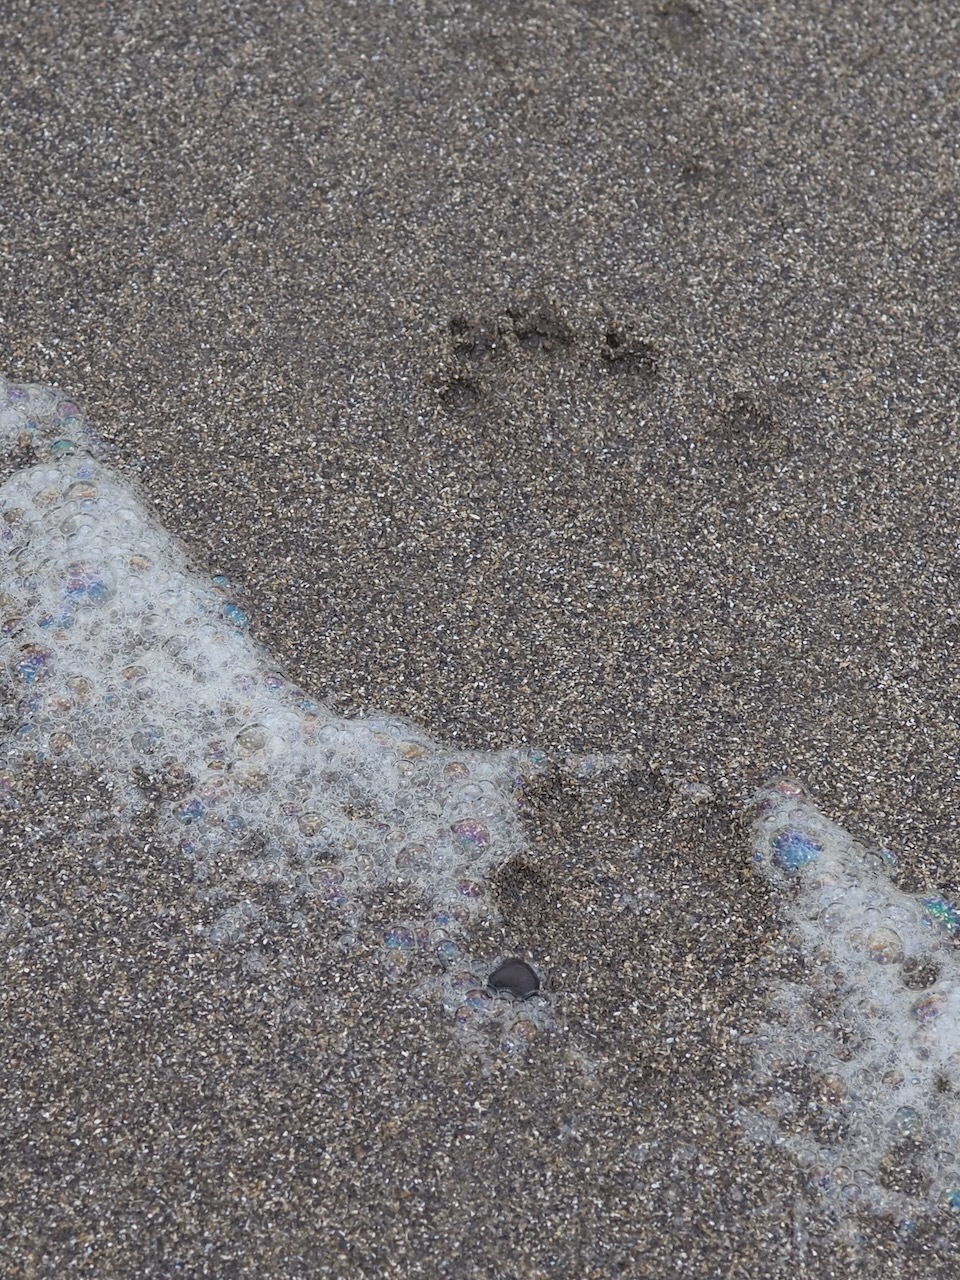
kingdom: Animalia
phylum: Chordata
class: Mammalia
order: Carnivora
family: Mustelidae
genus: Lontra
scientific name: Lontra canadensis
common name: North american river otter
